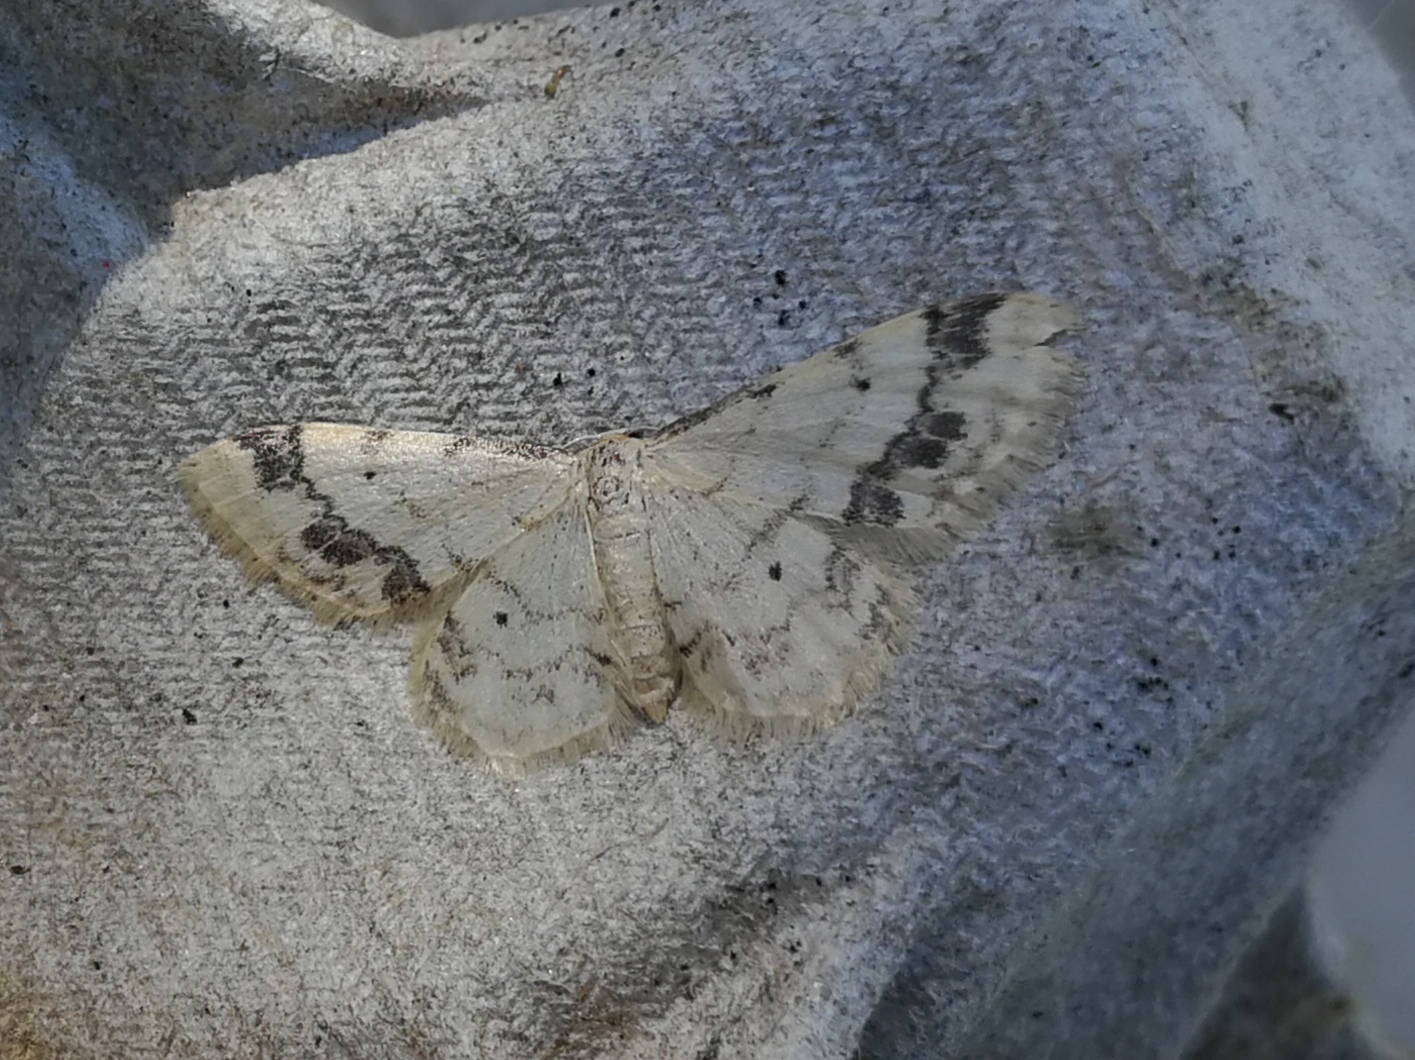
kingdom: Animalia
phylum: Arthropoda
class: Insecta
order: Lepidoptera
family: Geometridae
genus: Idaea
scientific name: Idaea trigeminata
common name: Treble brown spot
